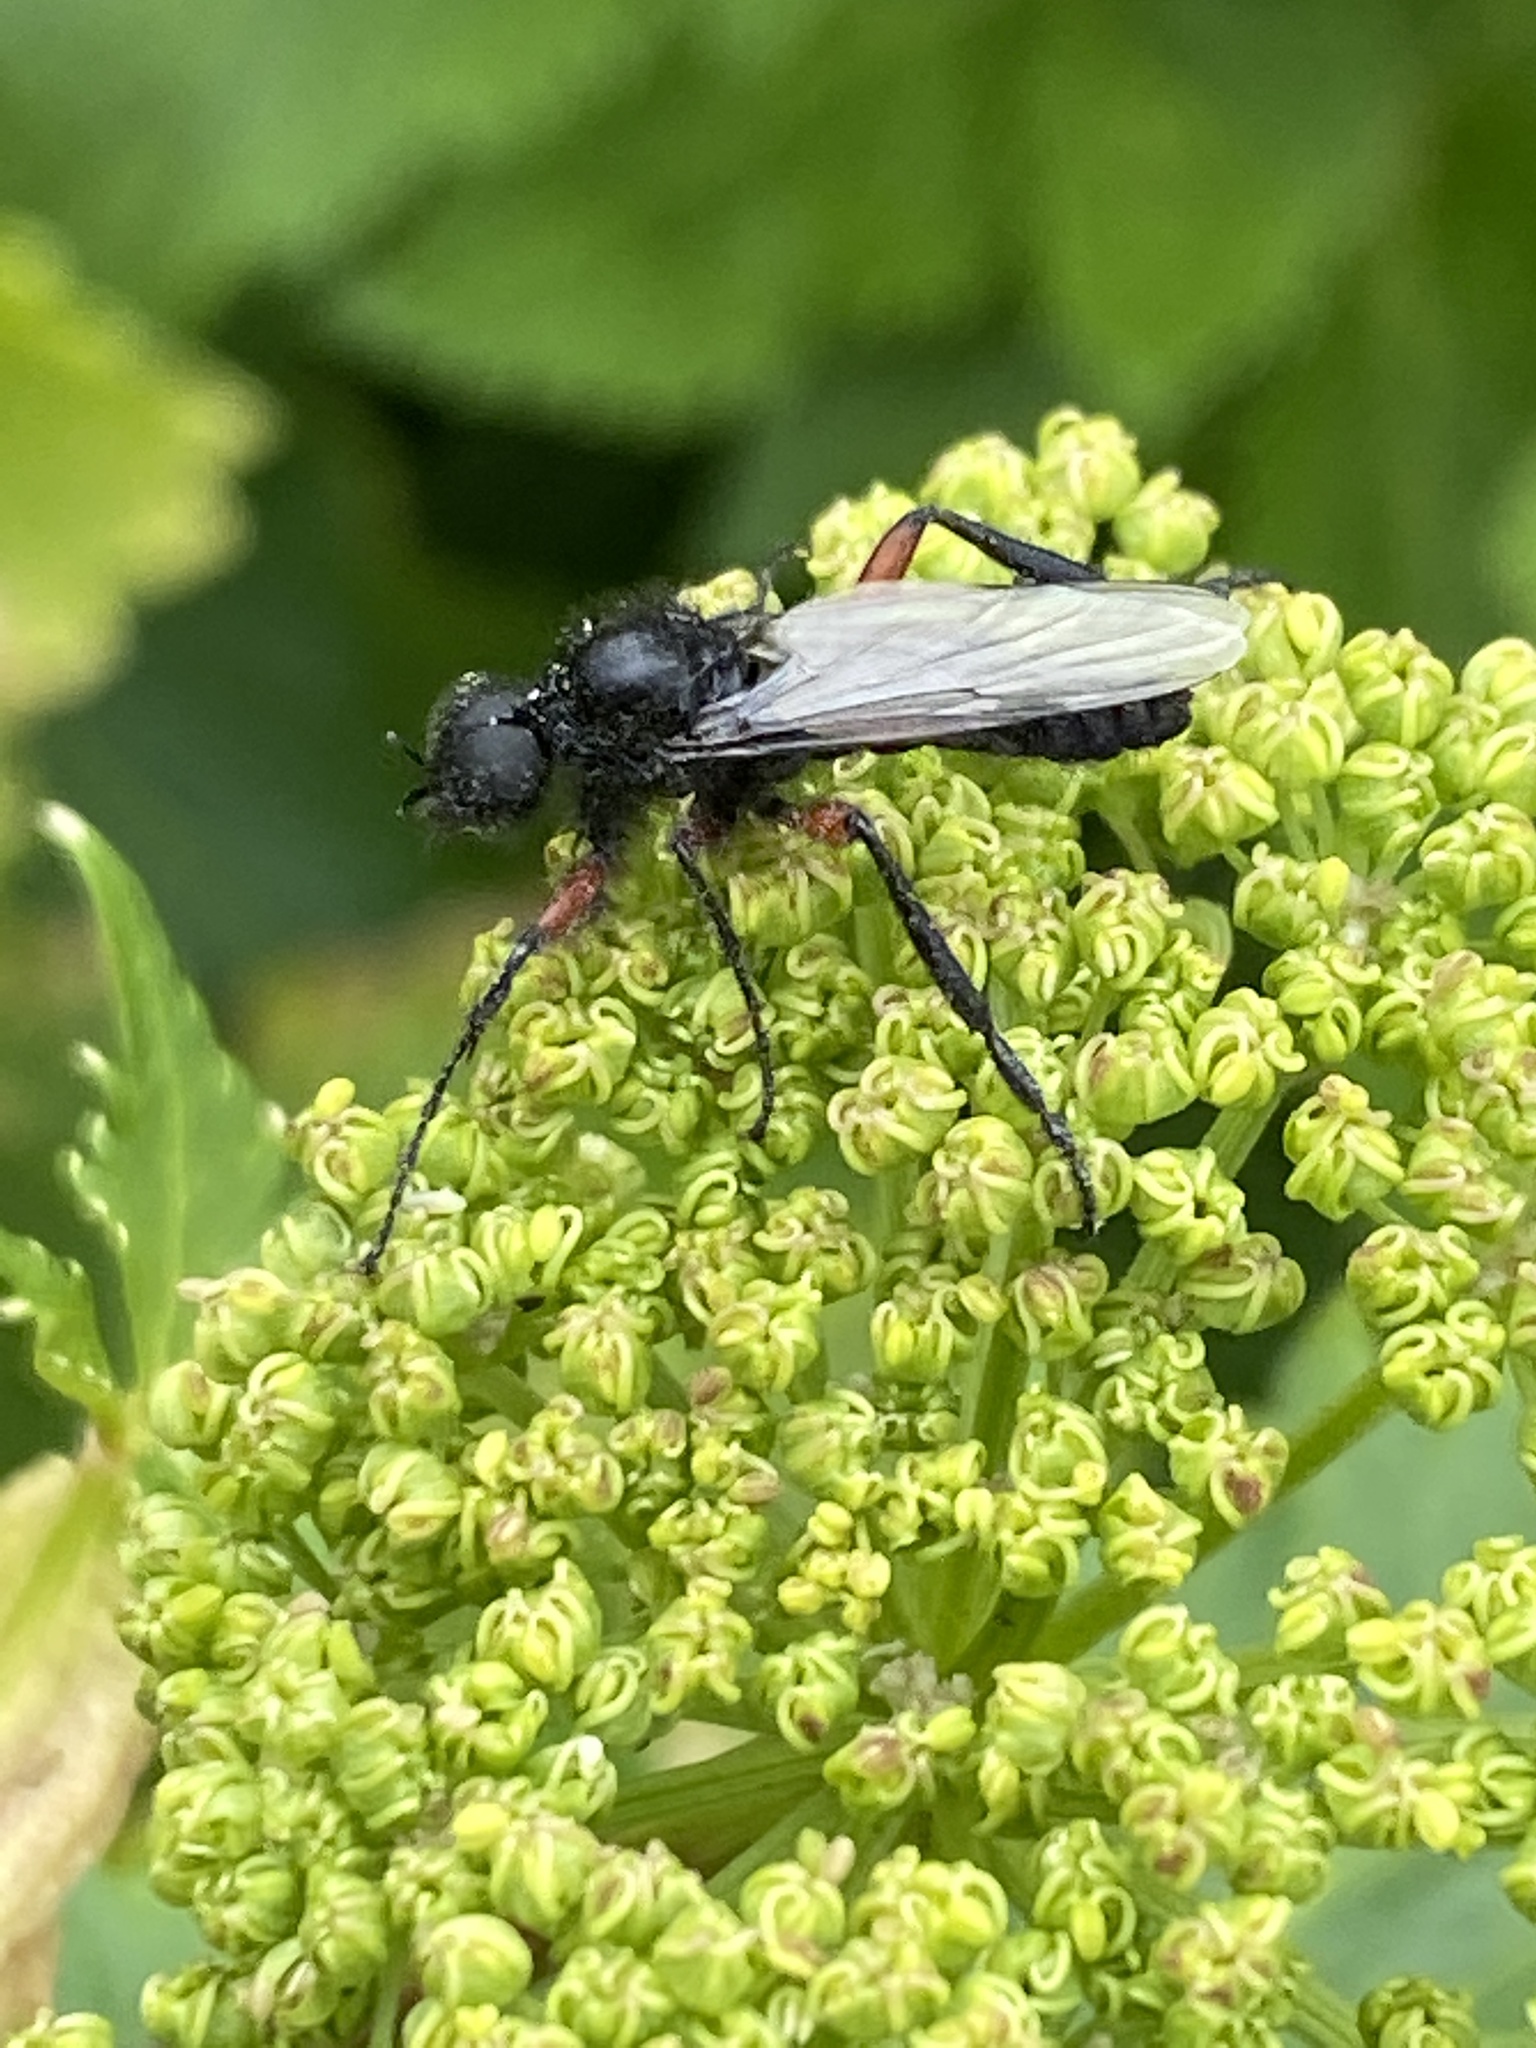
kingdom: Animalia
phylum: Arthropoda
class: Insecta
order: Diptera
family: Bibionidae
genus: Bibio
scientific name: Bibio pomonae
